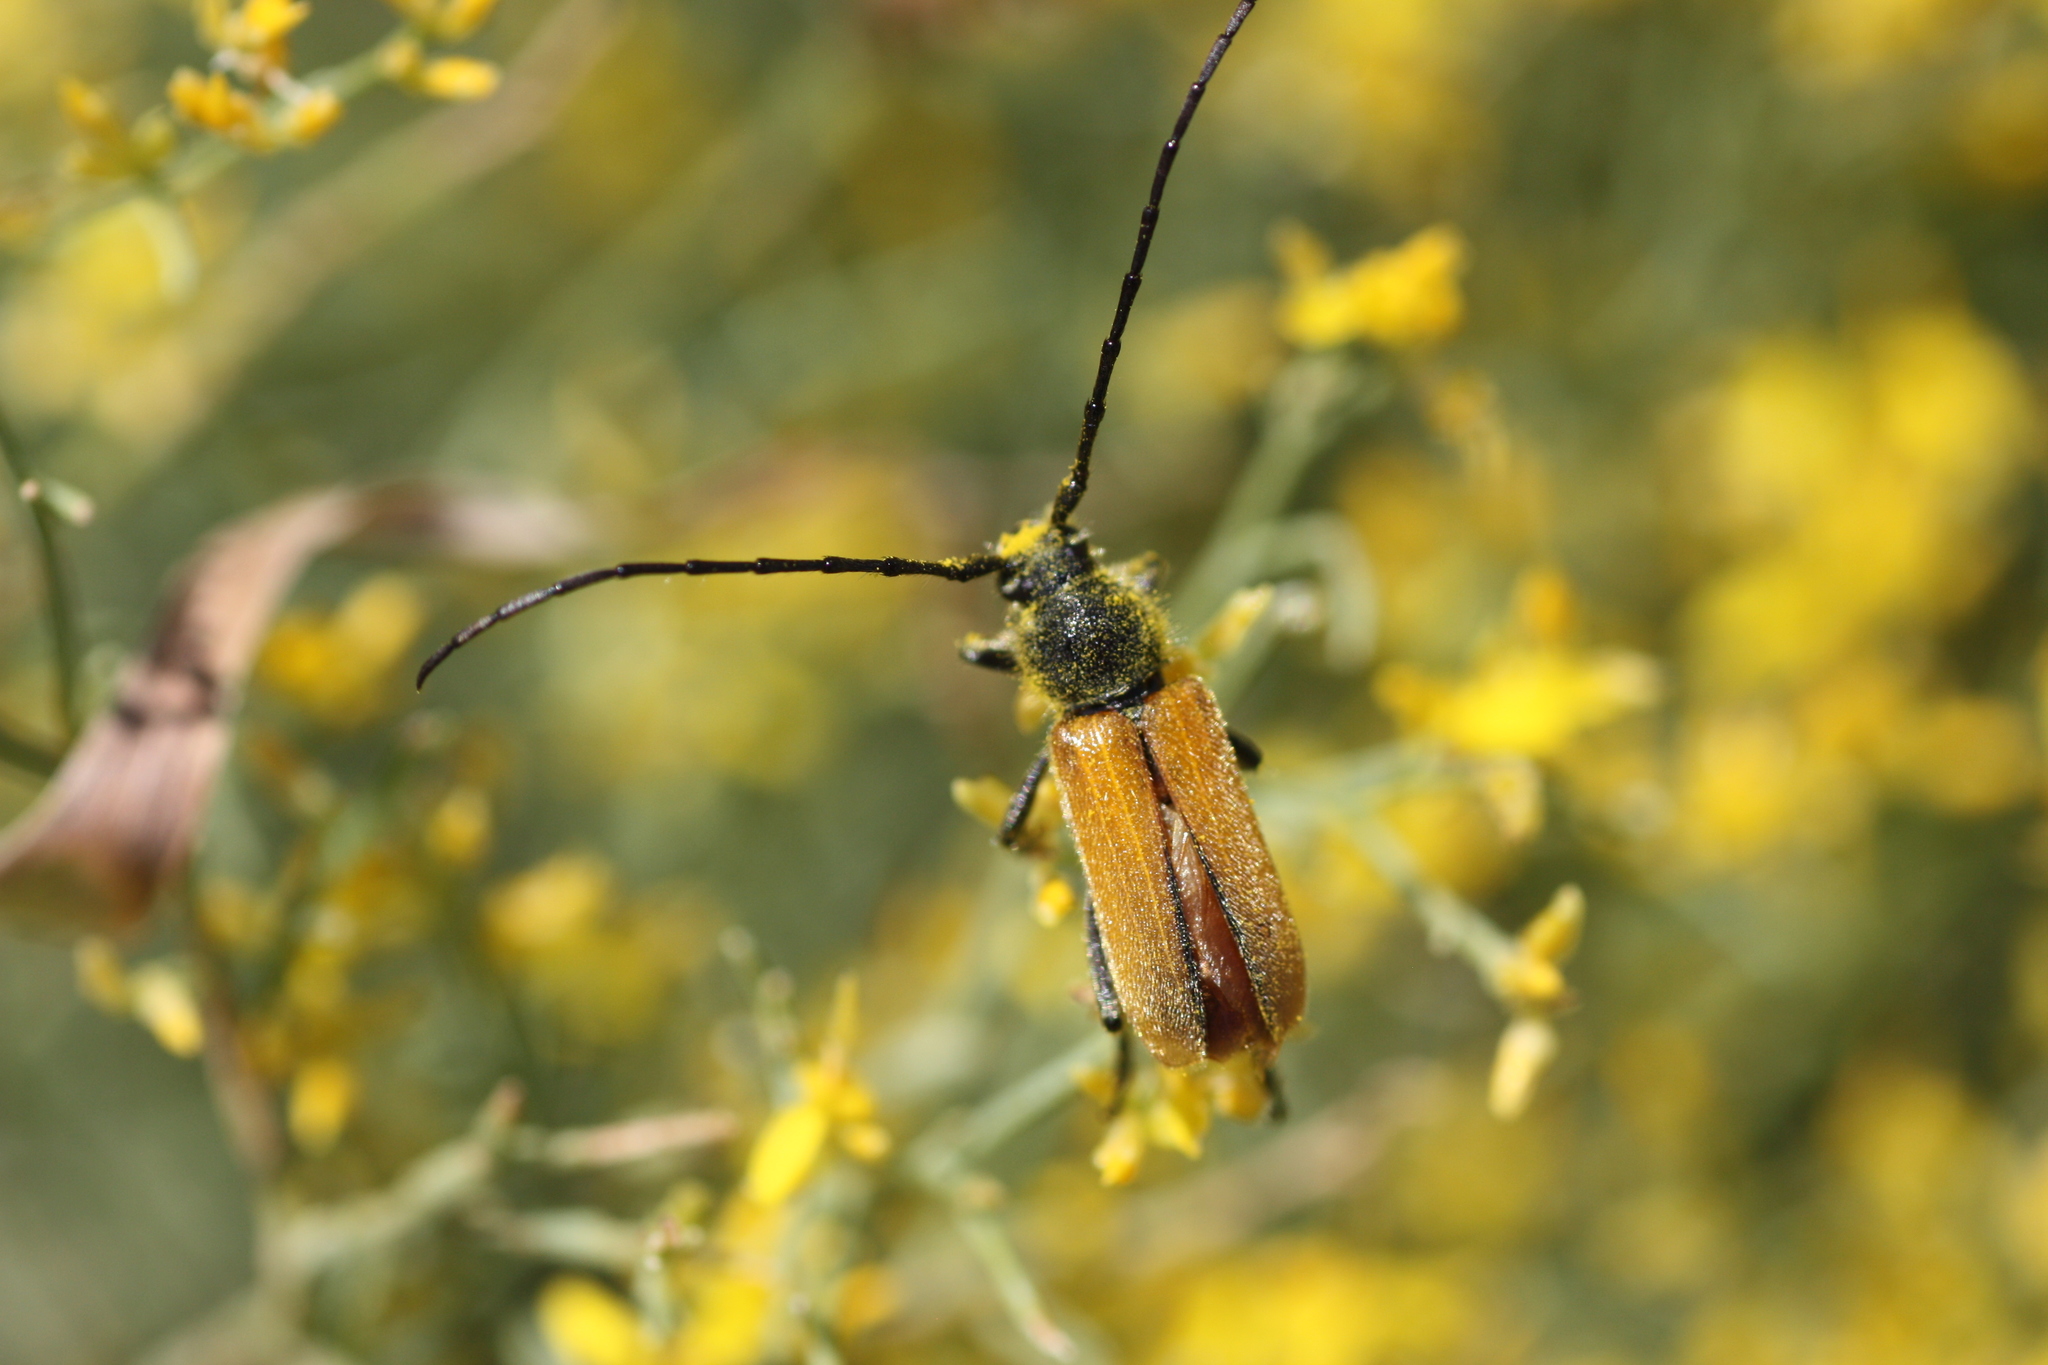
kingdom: Animalia
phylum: Arthropoda
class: Insecta
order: Coleoptera
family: Cerambycidae
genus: Crossidius
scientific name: Crossidius pulchellus
